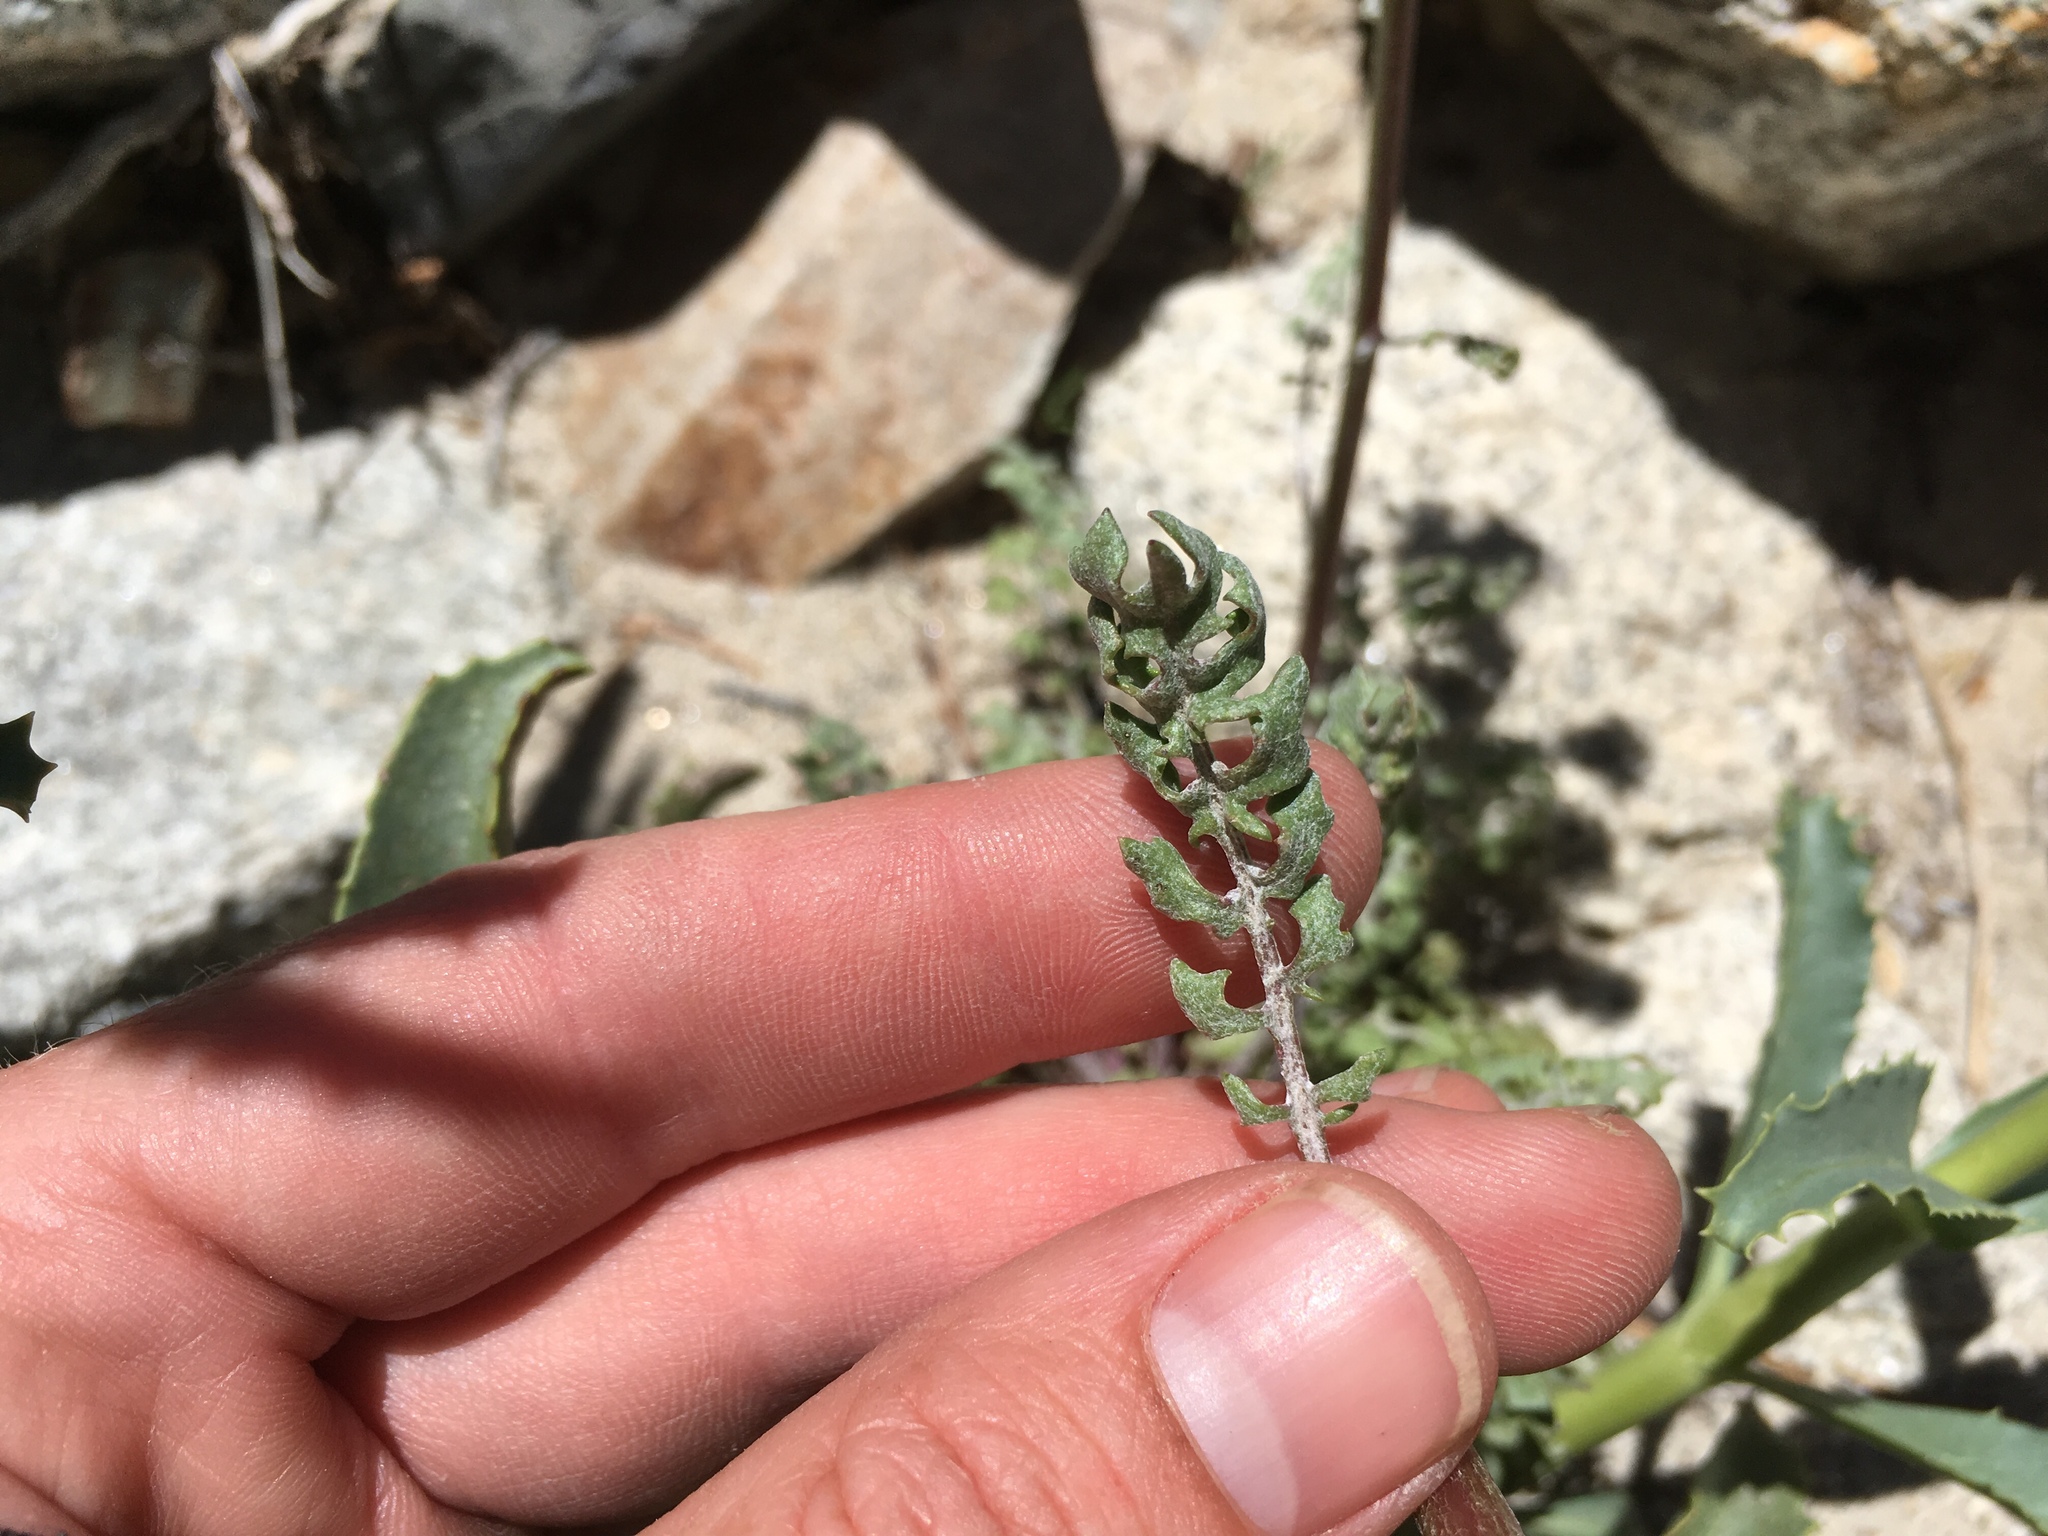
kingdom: Plantae
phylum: Tracheophyta
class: Magnoliopsida
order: Asterales
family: Asteraceae
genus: Packera
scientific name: Packera multilobata
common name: Lobe-leaf groundsel
